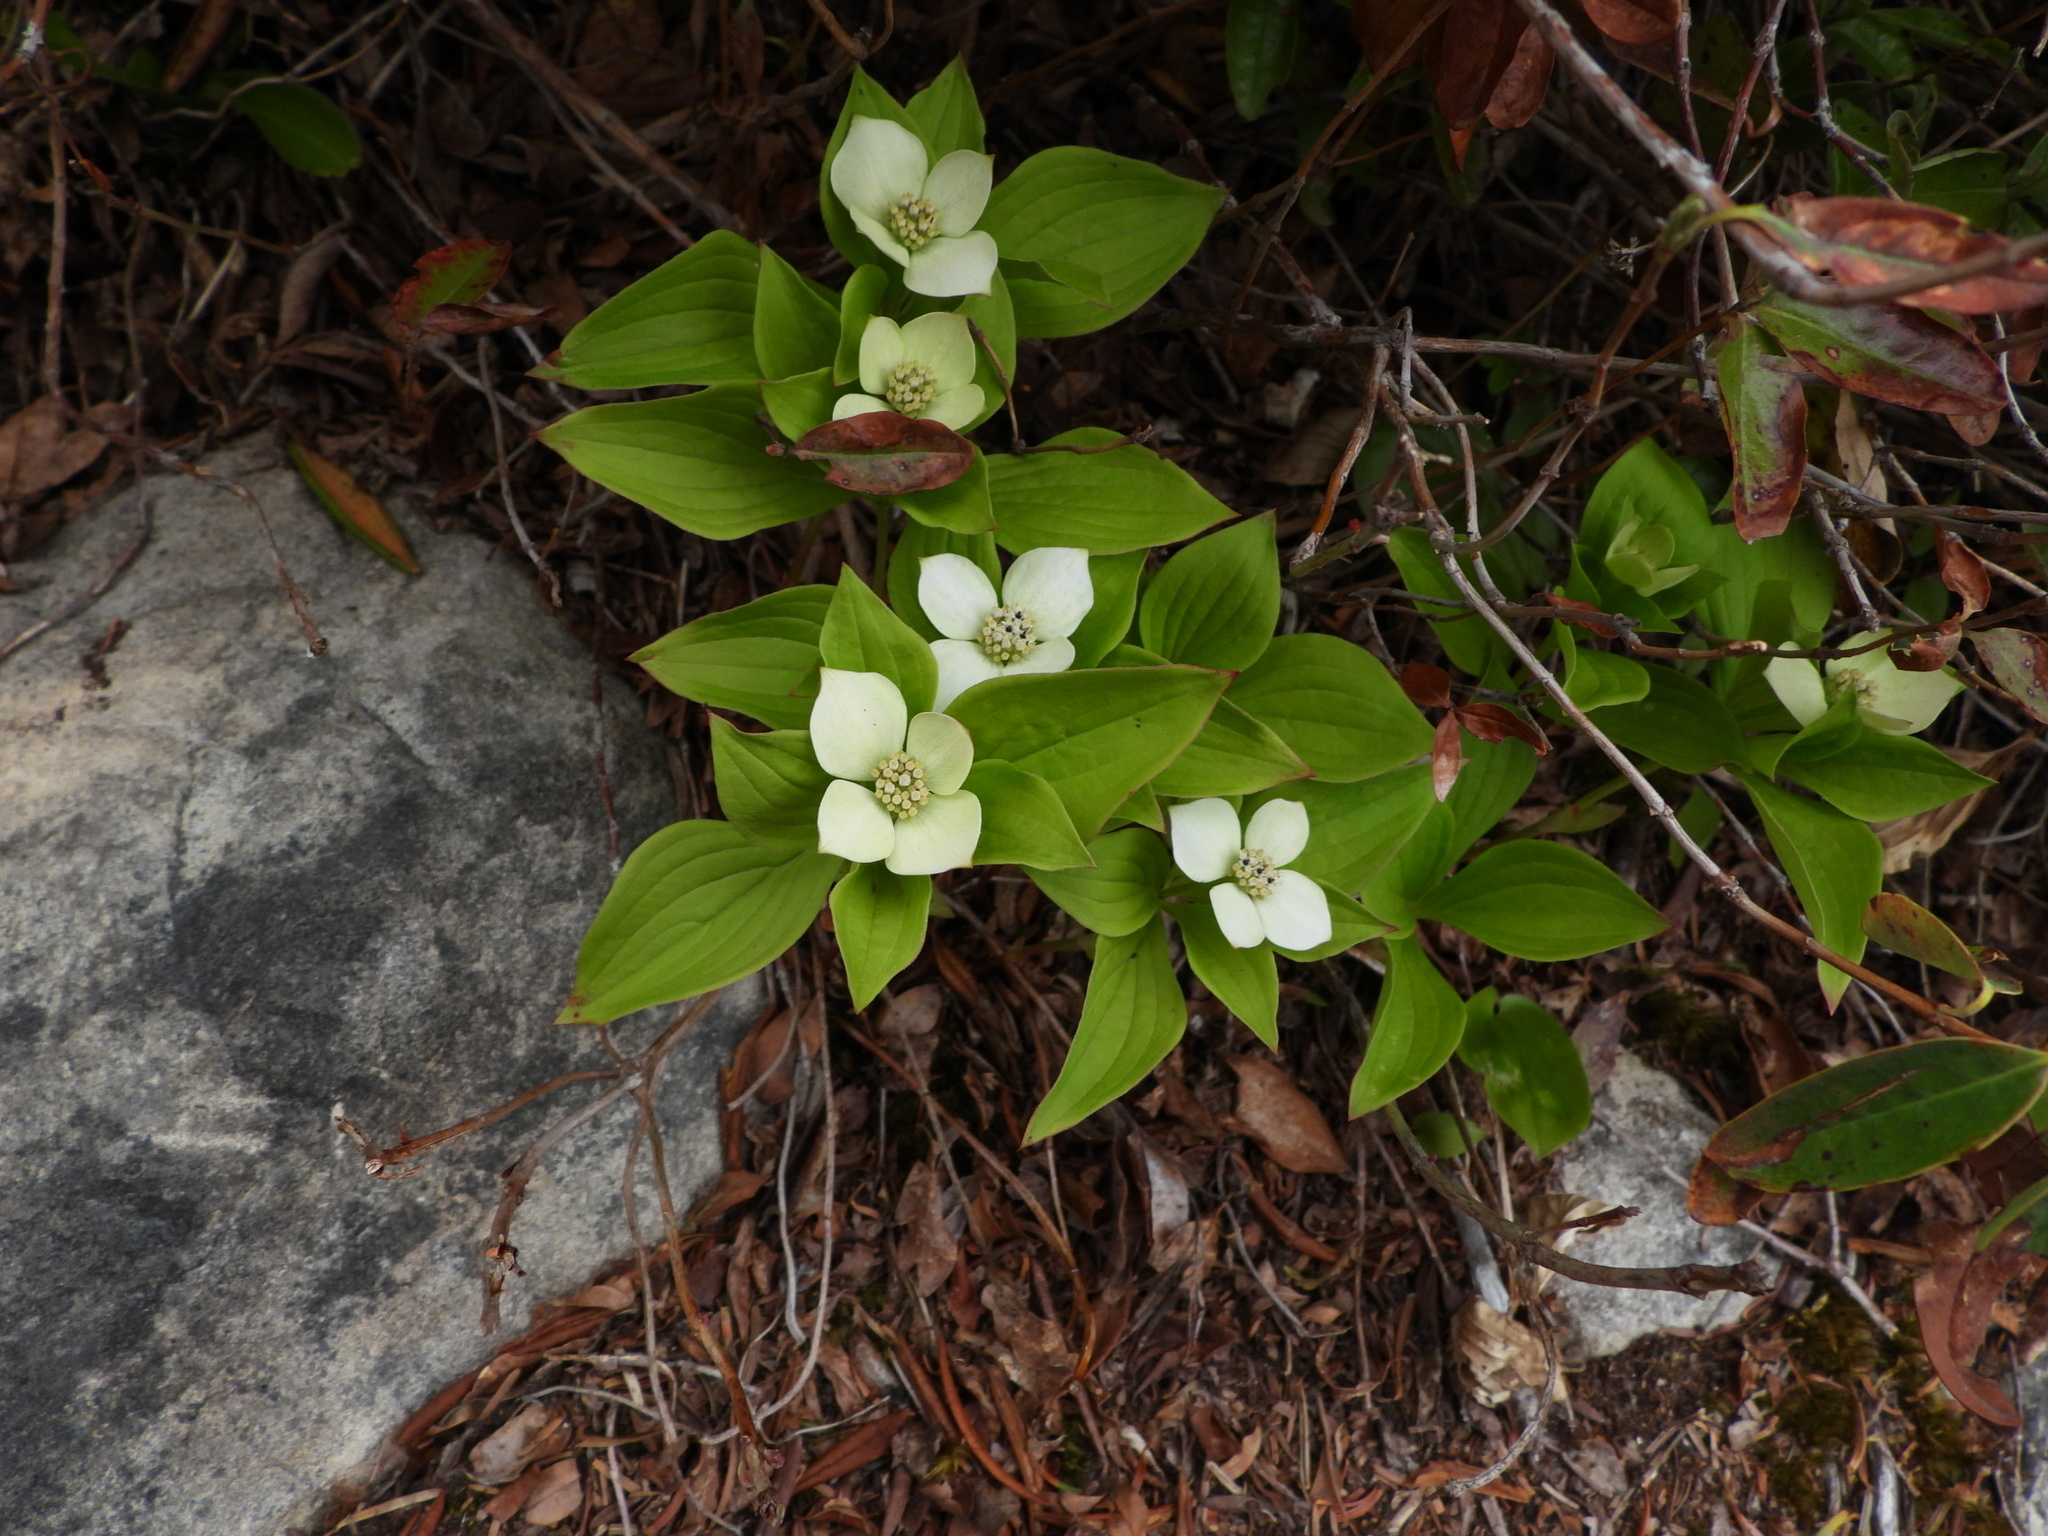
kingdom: Plantae
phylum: Tracheophyta
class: Magnoliopsida
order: Cornales
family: Cornaceae
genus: Cornus
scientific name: Cornus canadensis
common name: Creeping dogwood
